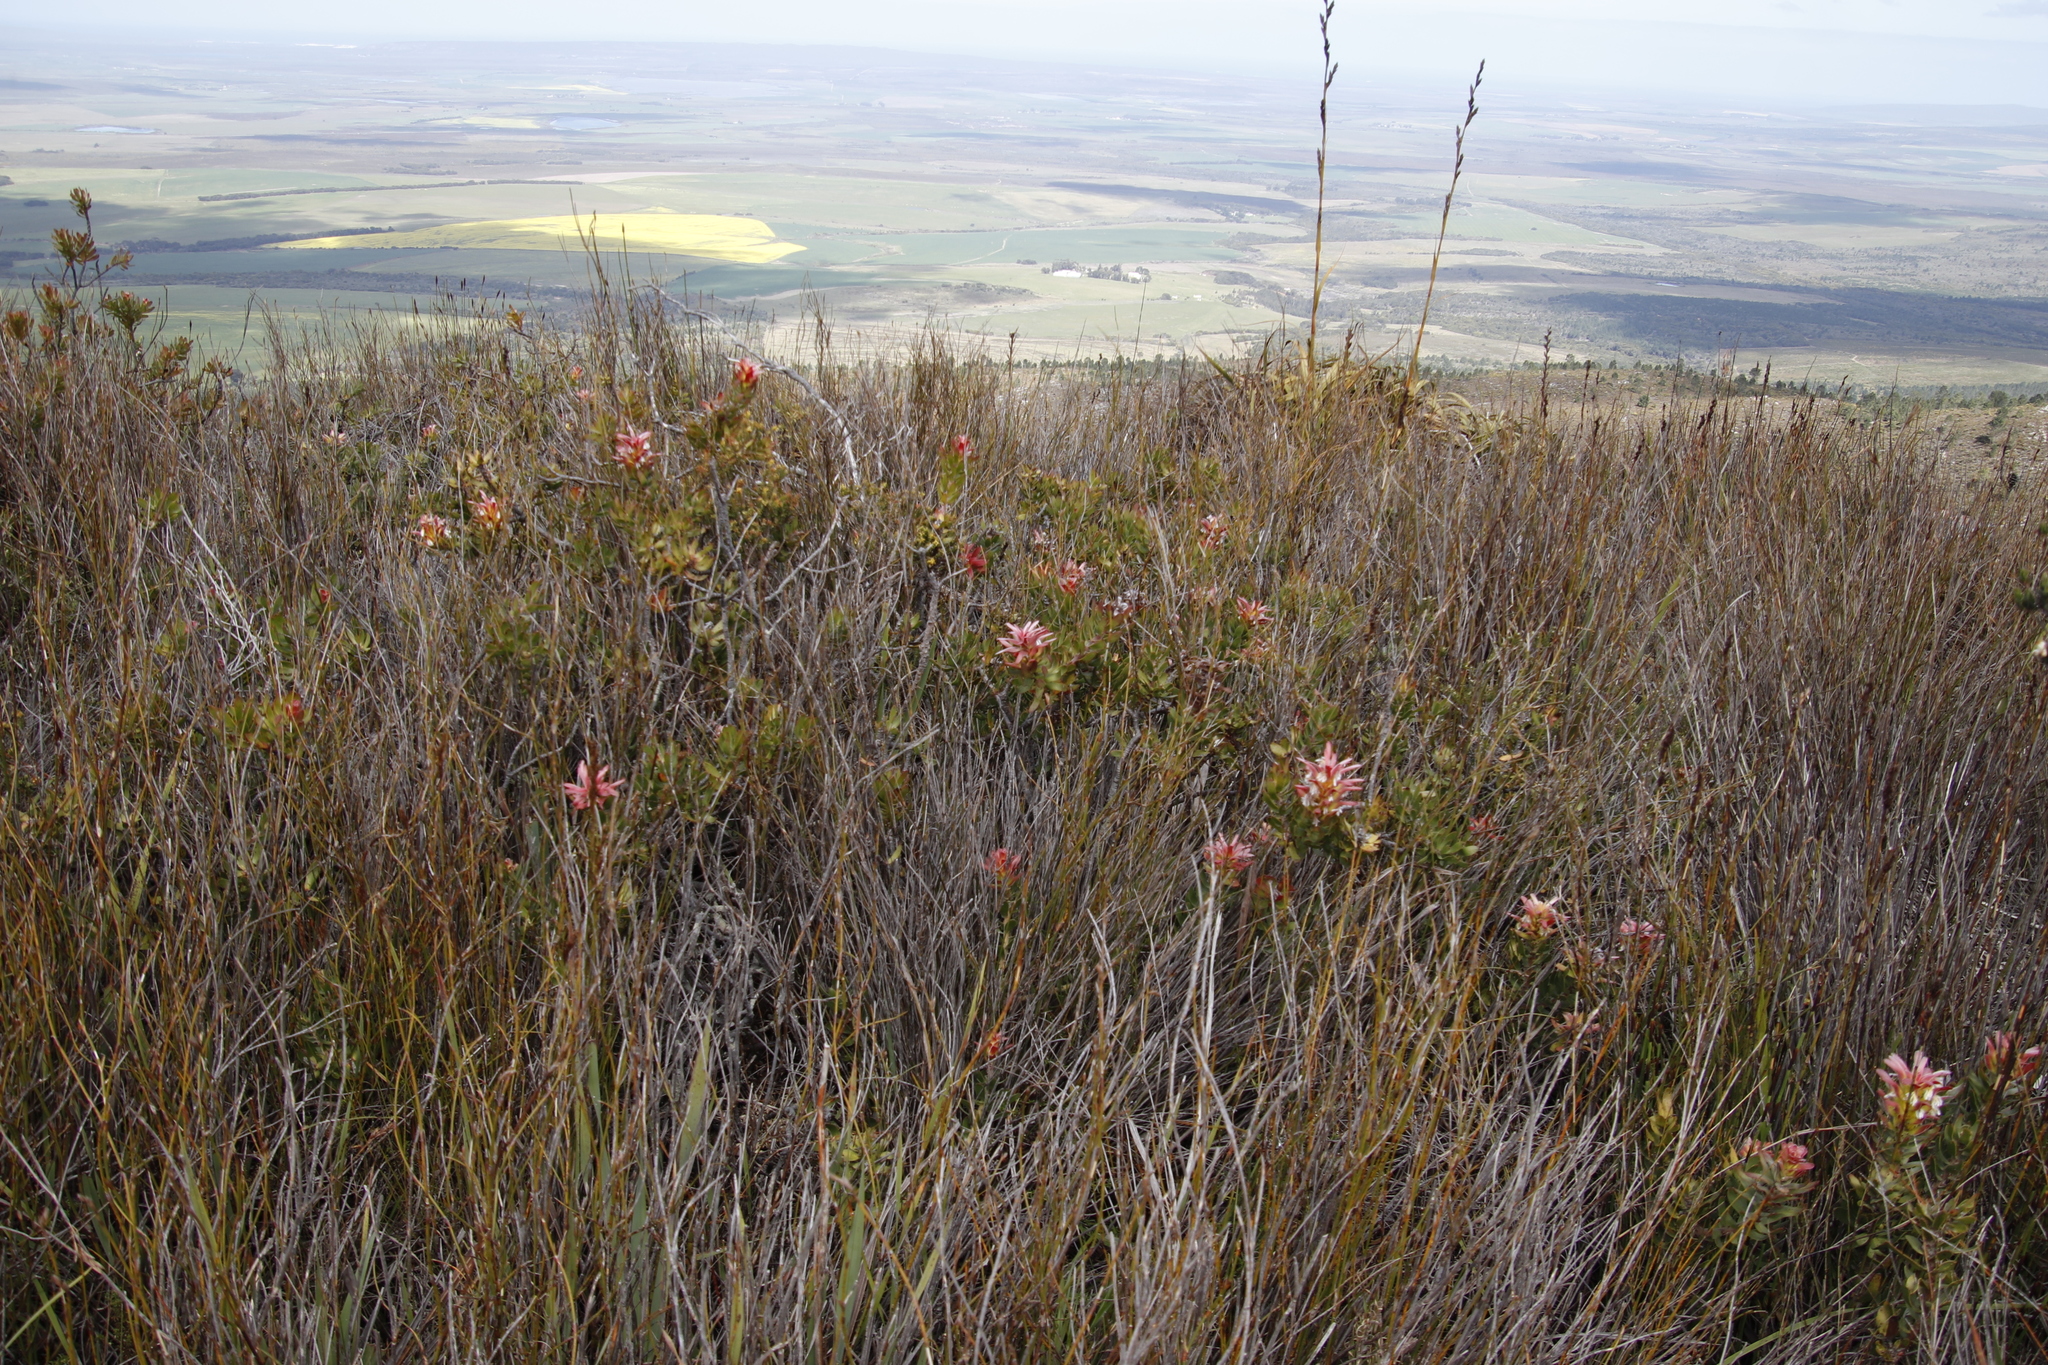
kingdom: Plantae
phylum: Tracheophyta
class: Magnoliopsida
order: Proteales
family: Proteaceae
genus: Mimetes
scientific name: Mimetes cucullatus
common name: Common pagoda
